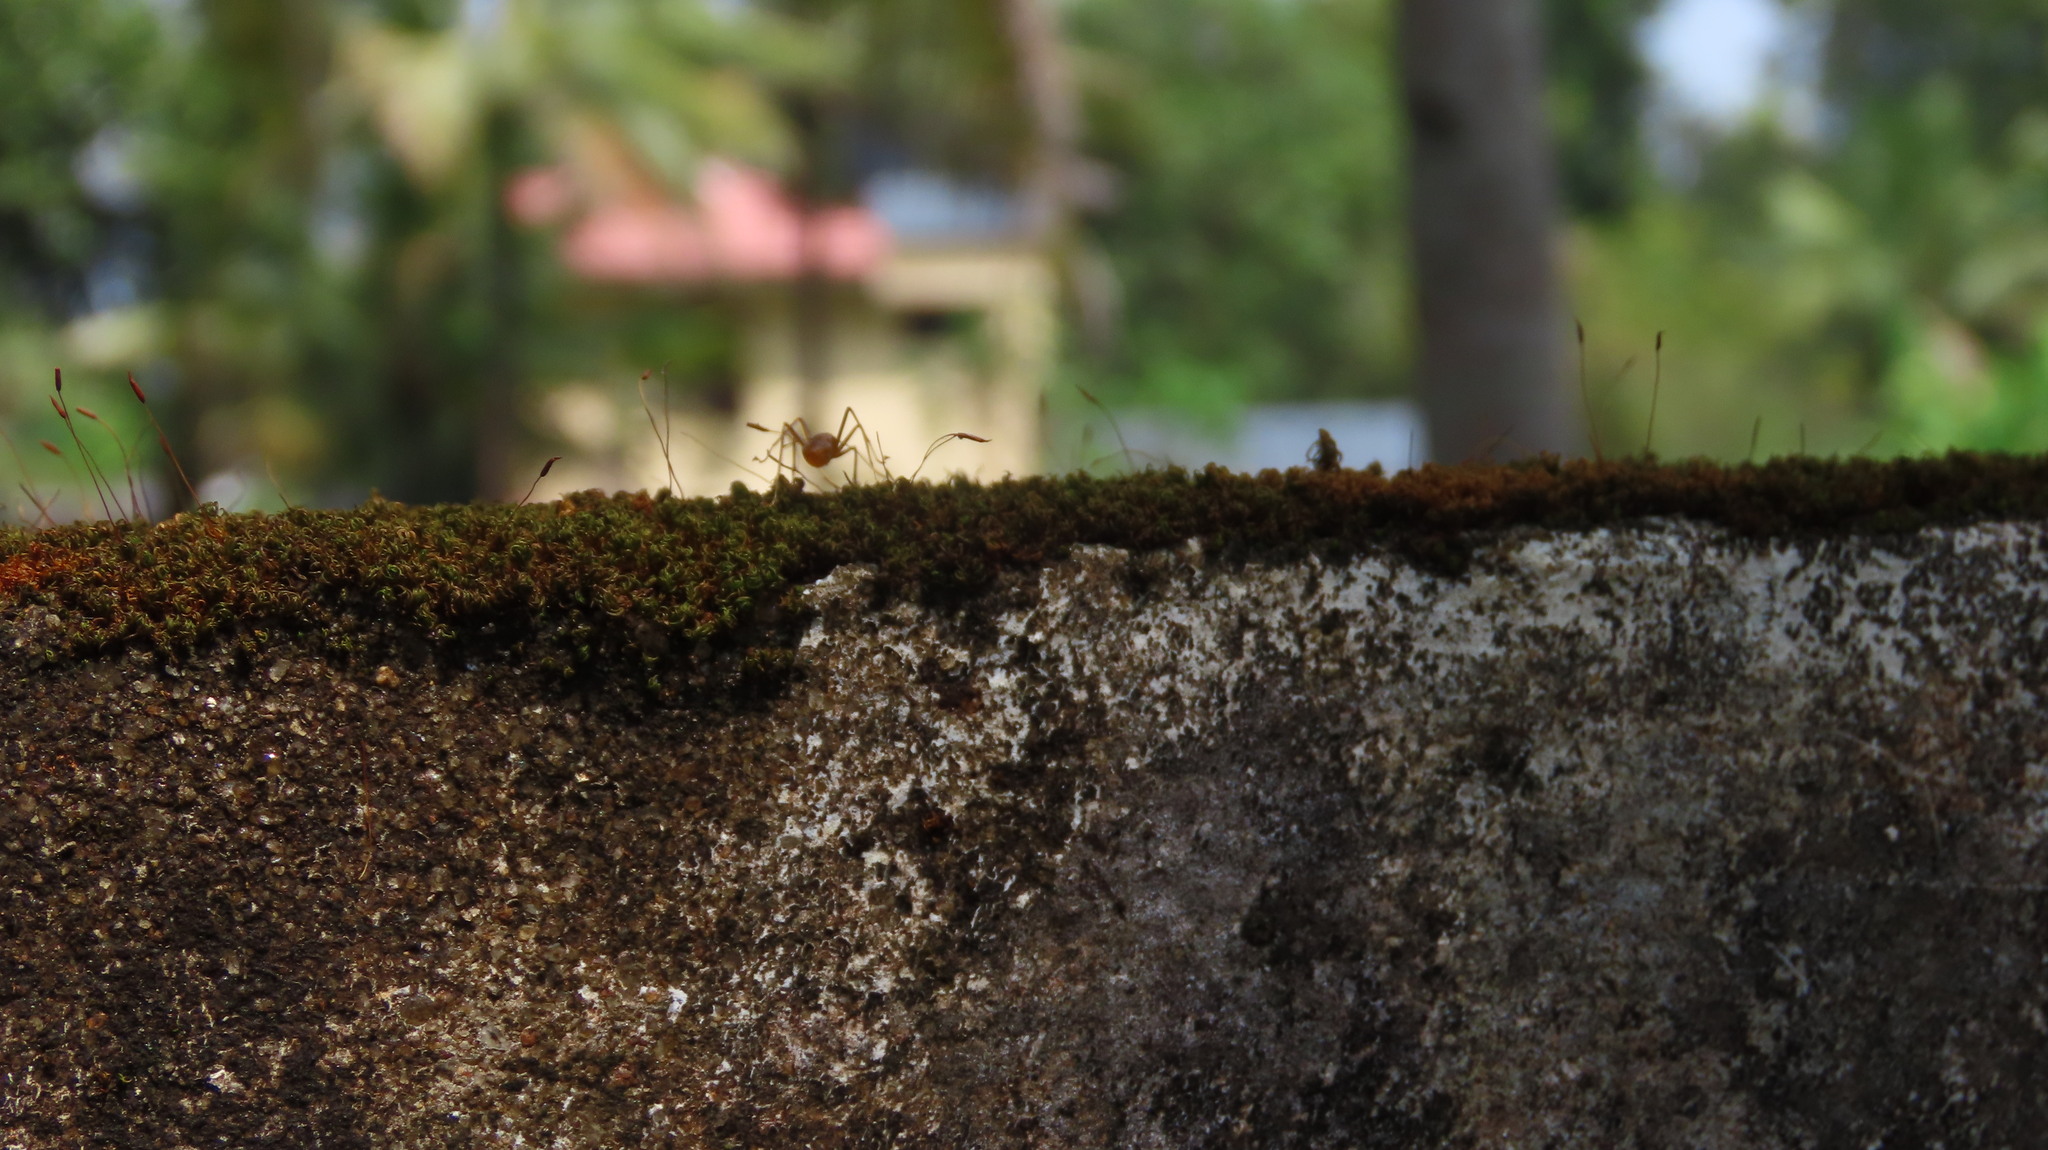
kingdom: Animalia
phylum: Arthropoda
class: Insecta
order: Hymenoptera
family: Formicidae
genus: Oecophylla
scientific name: Oecophylla smaragdina
